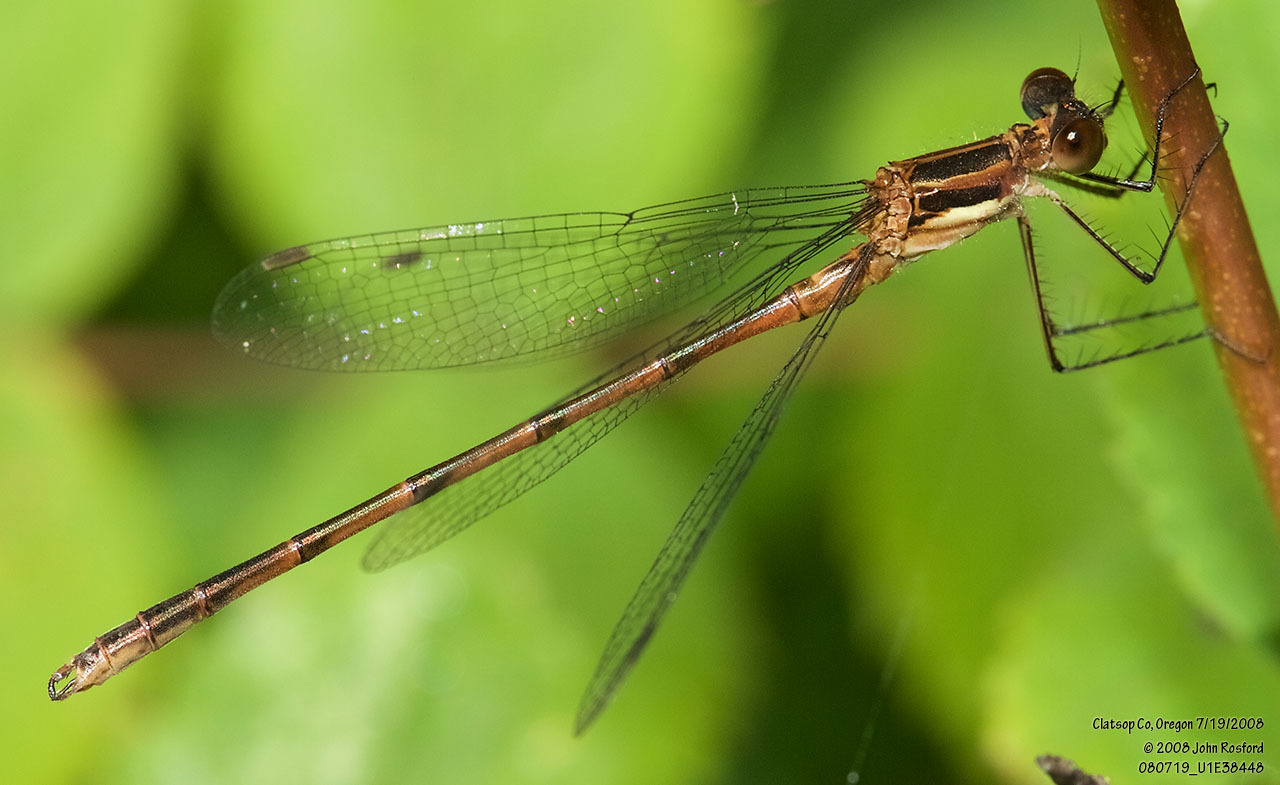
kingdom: Animalia
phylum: Arthropoda
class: Insecta
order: Odonata
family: Lestidae
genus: Lestes
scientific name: Lestes disjunctus
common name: Northern spreadwing
